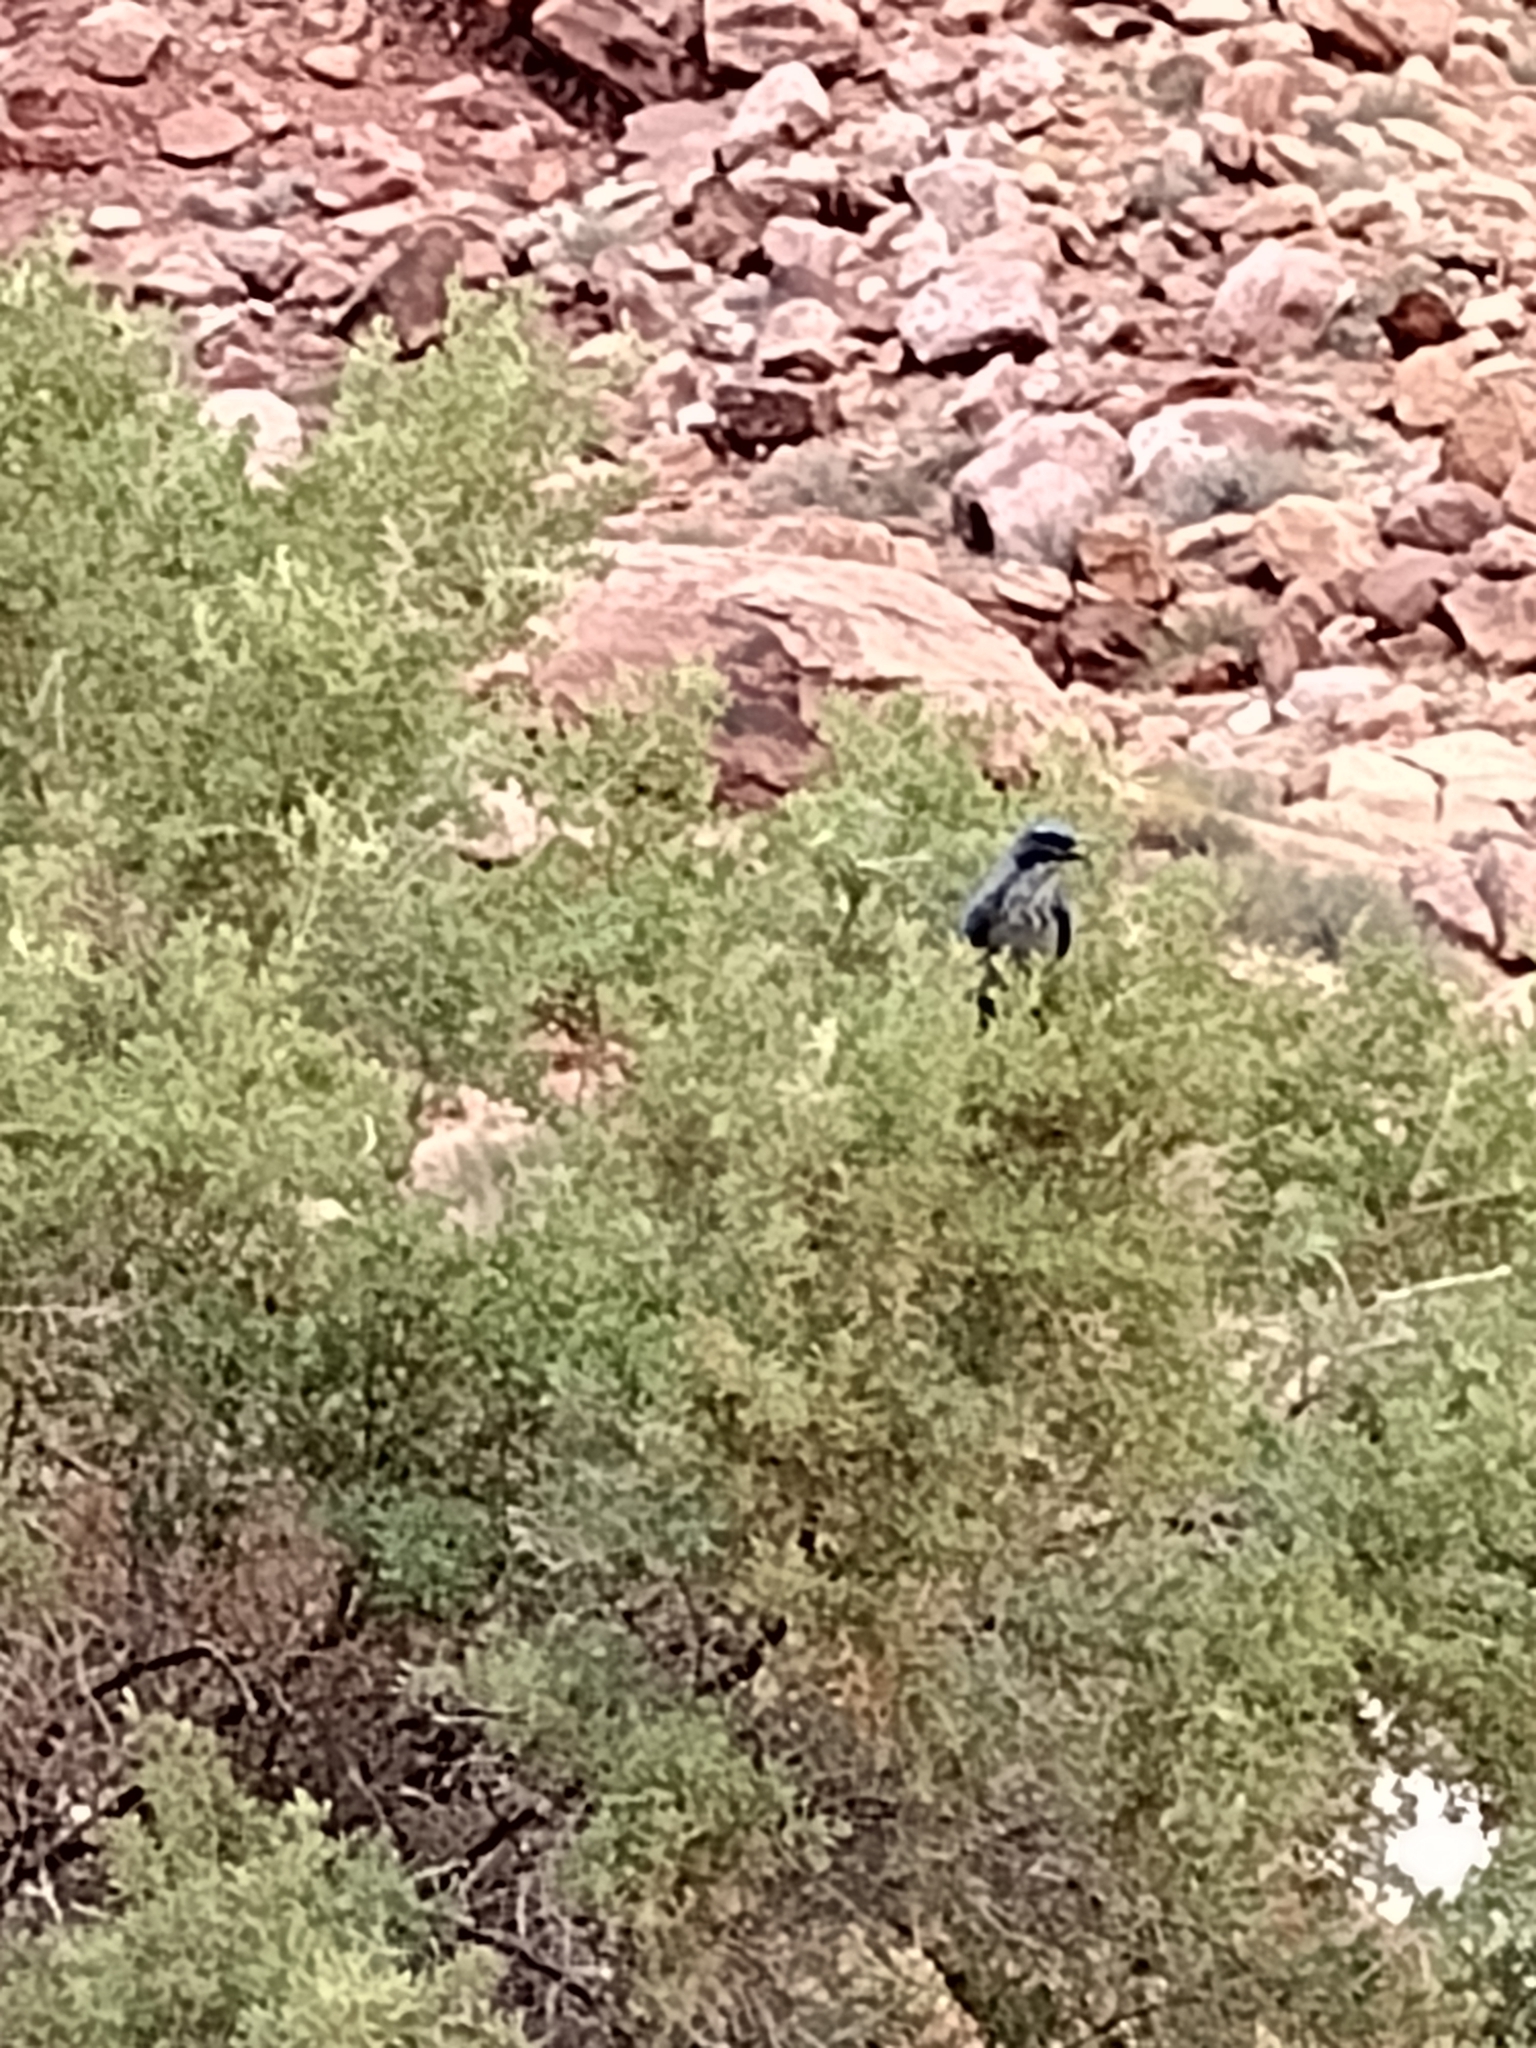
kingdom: Animalia
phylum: Chordata
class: Aves
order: Passeriformes
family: Corvidae
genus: Aphelocoma
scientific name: Aphelocoma woodhouseii
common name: Woodhouse's scrub-jay
